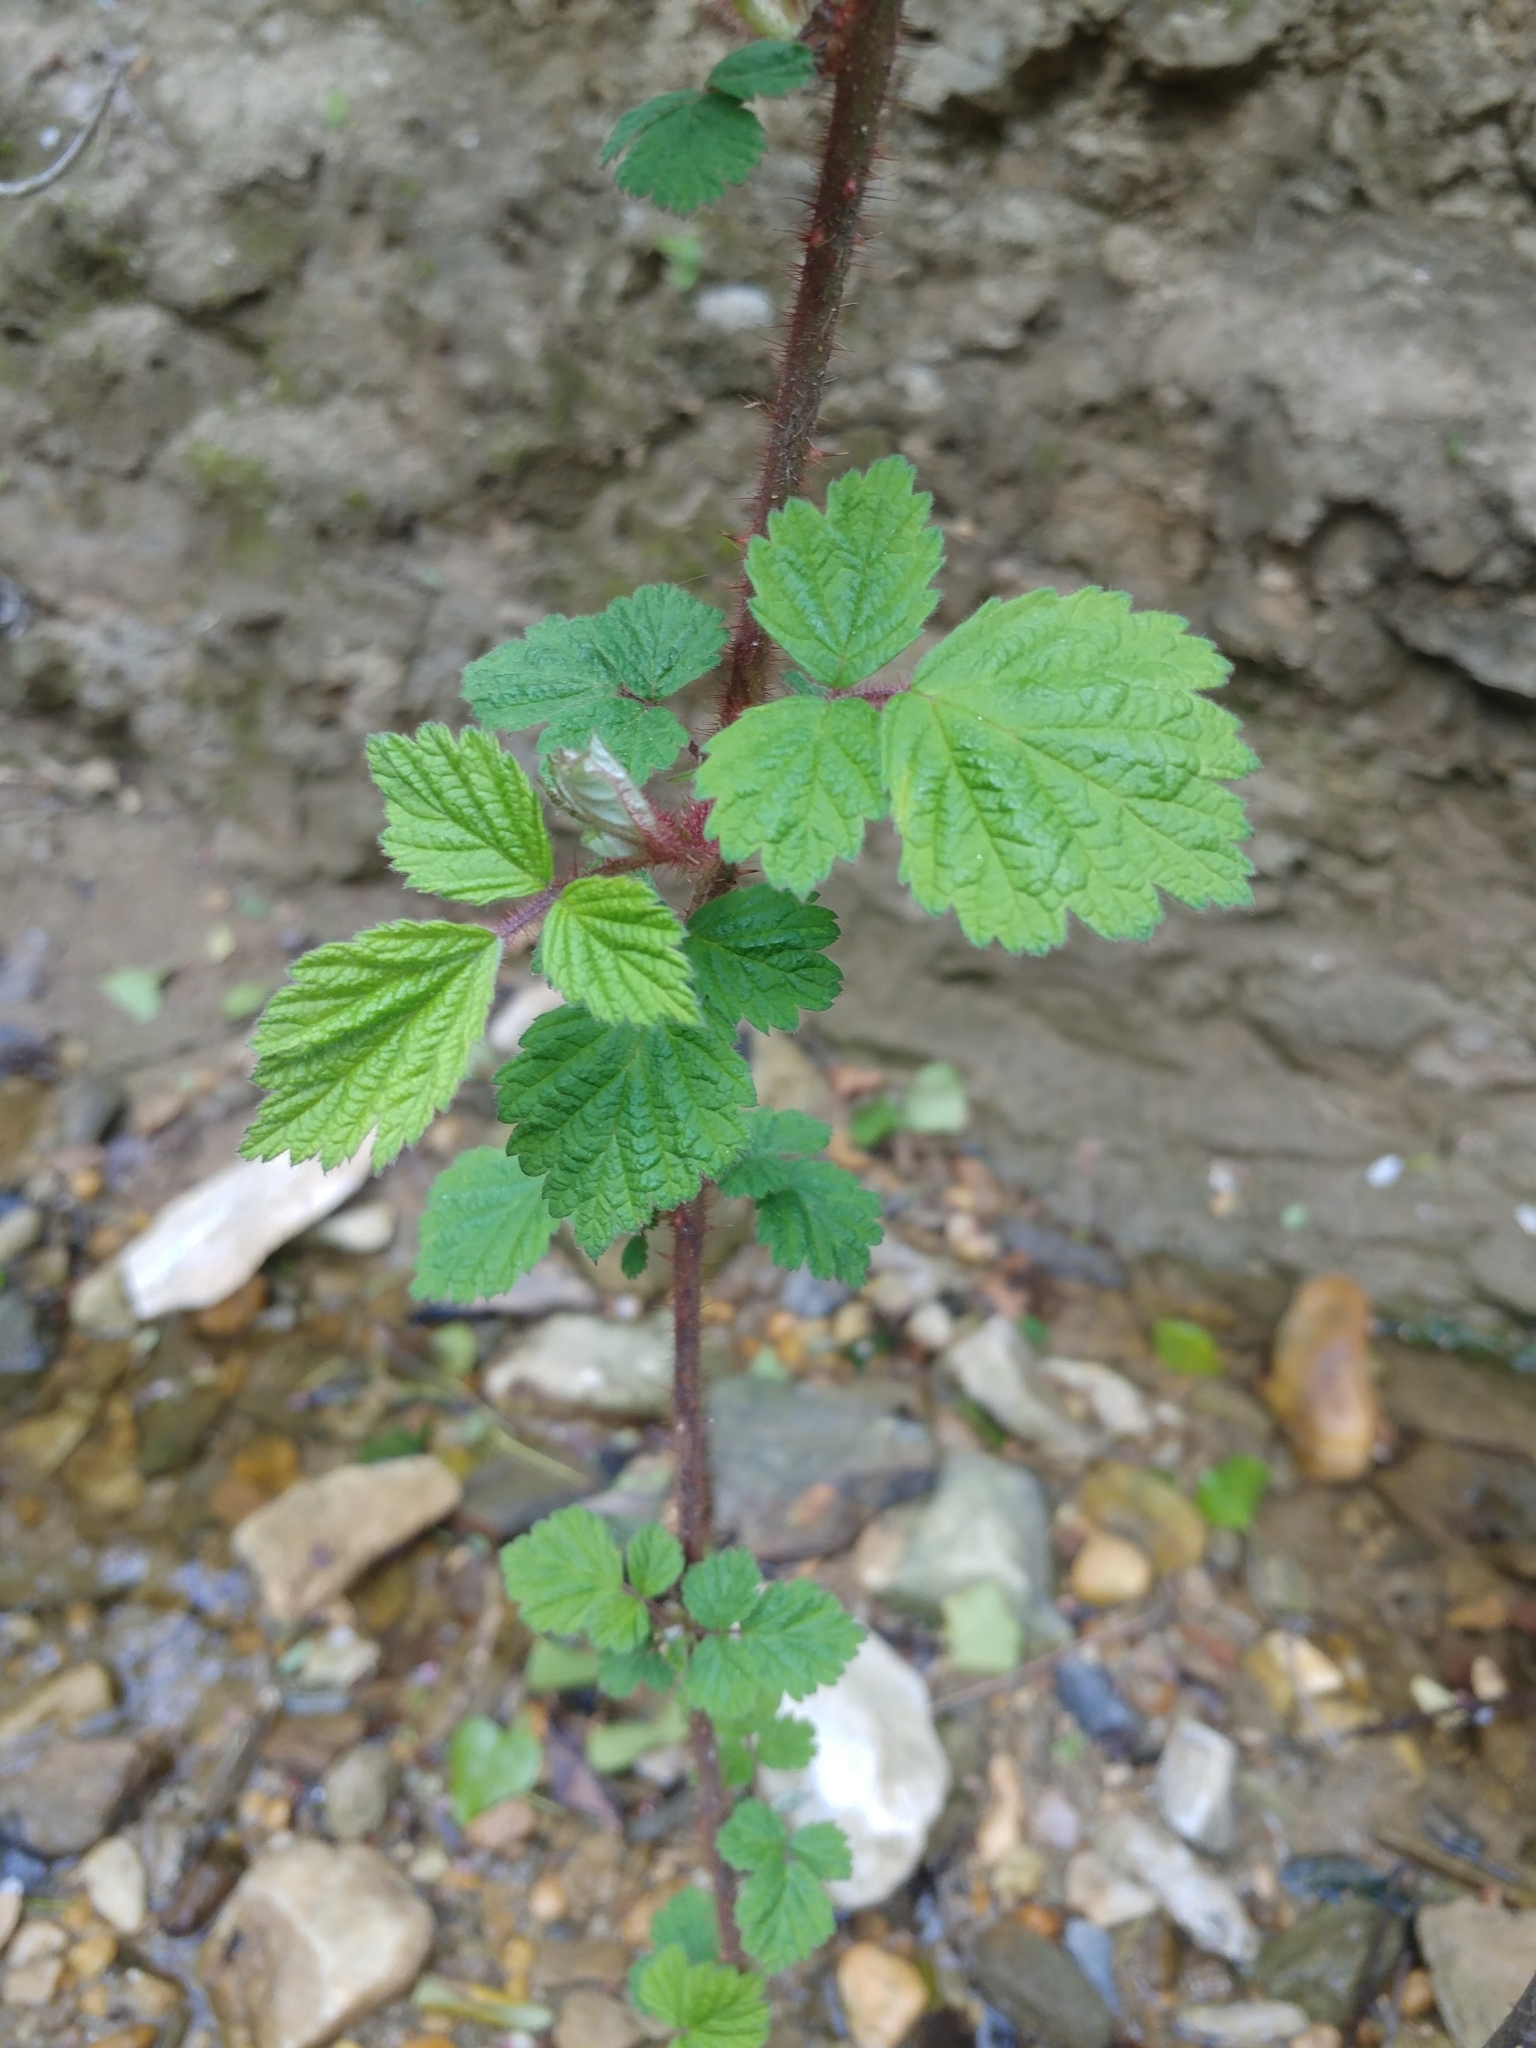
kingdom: Plantae
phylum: Tracheophyta
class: Magnoliopsida
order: Rosales
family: Rosaceae
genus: Rubus
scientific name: Rubus phoenicolasius
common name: Japanese wineberry
